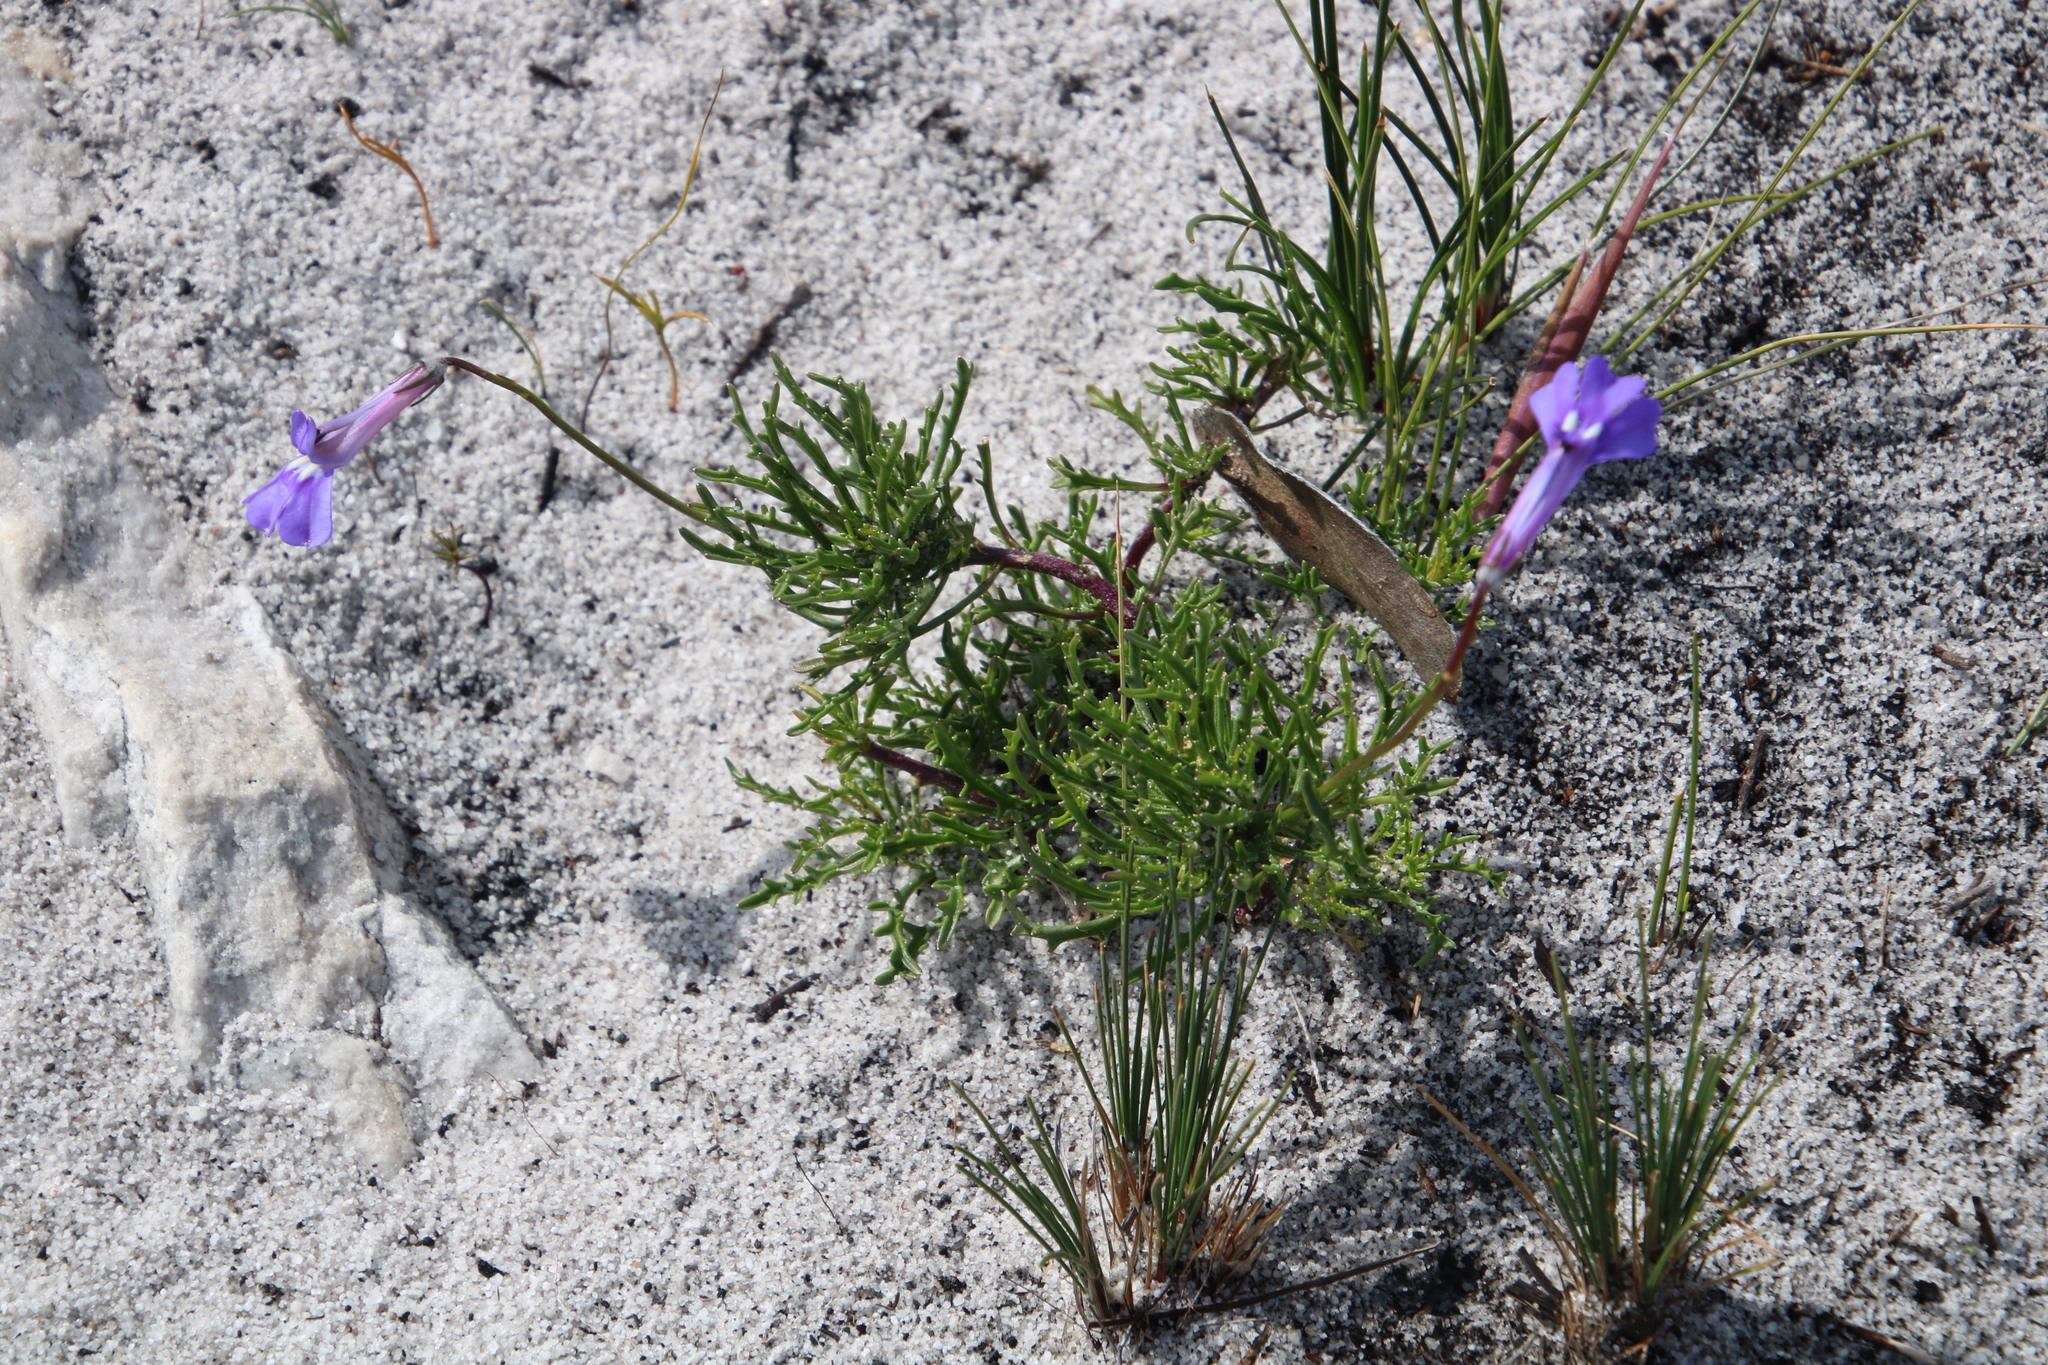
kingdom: Plantae
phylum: Tracheophyta
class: Magnoliopsida
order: Asterales
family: Campanulaceae
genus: Lobelia
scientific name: Lobelia coronopifolia
